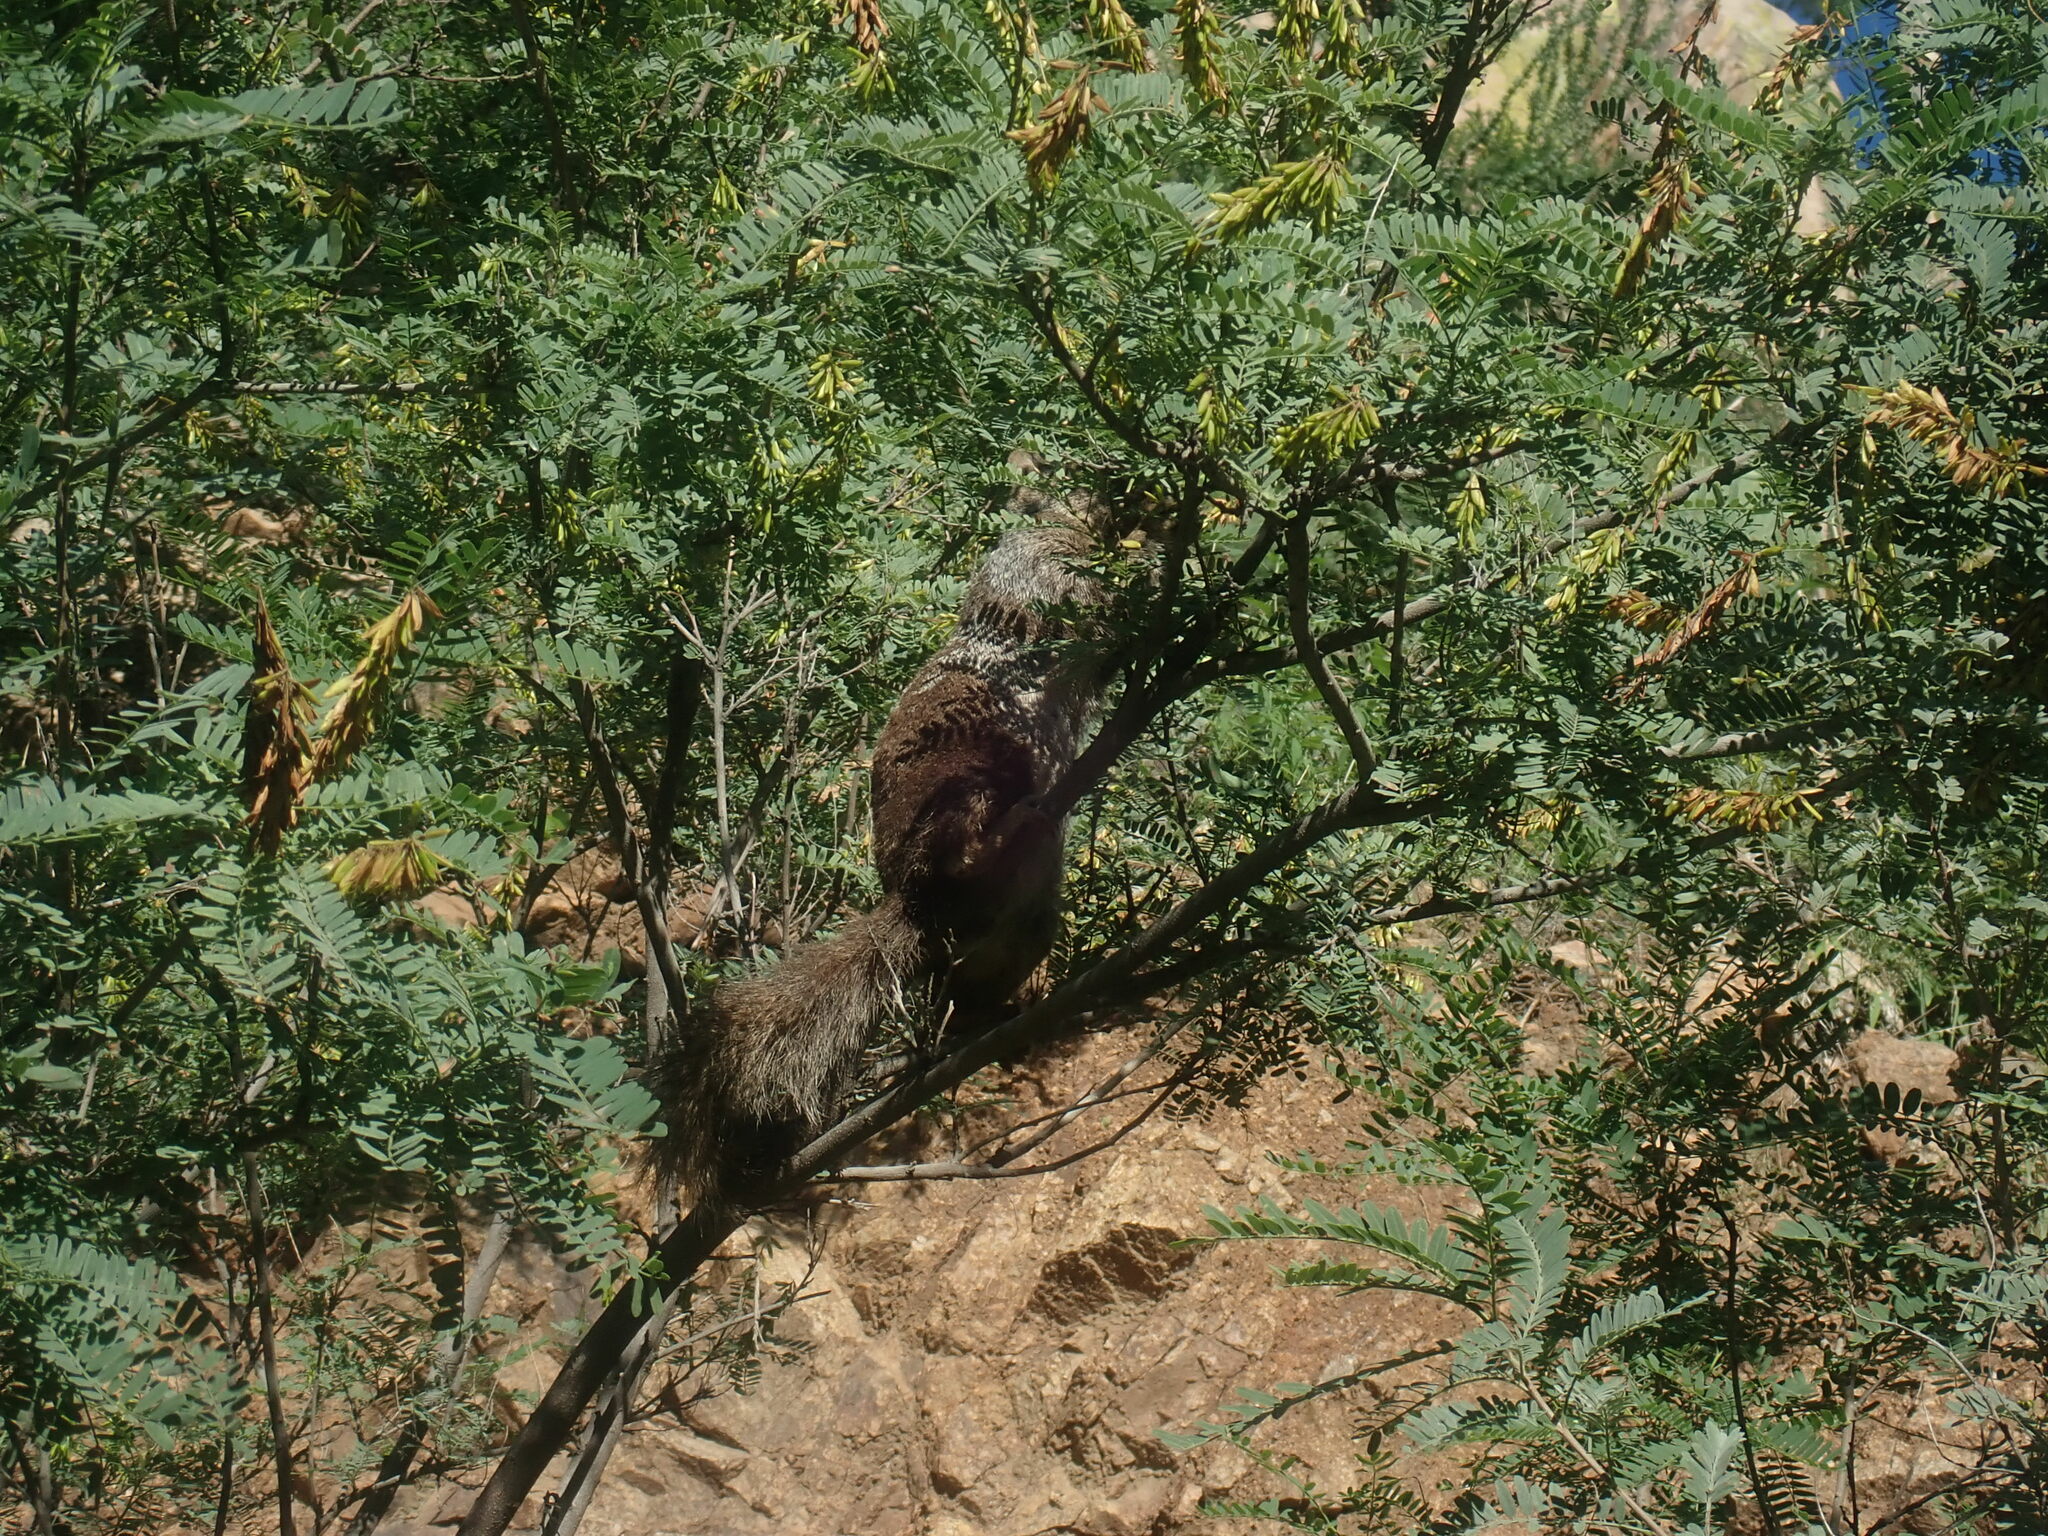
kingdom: Animalia
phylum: Chordata
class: Mammalia
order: Rodentia
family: Sciuridae
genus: Otospermophilus
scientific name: Otospermophilus variegatus
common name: Rock squirrel
